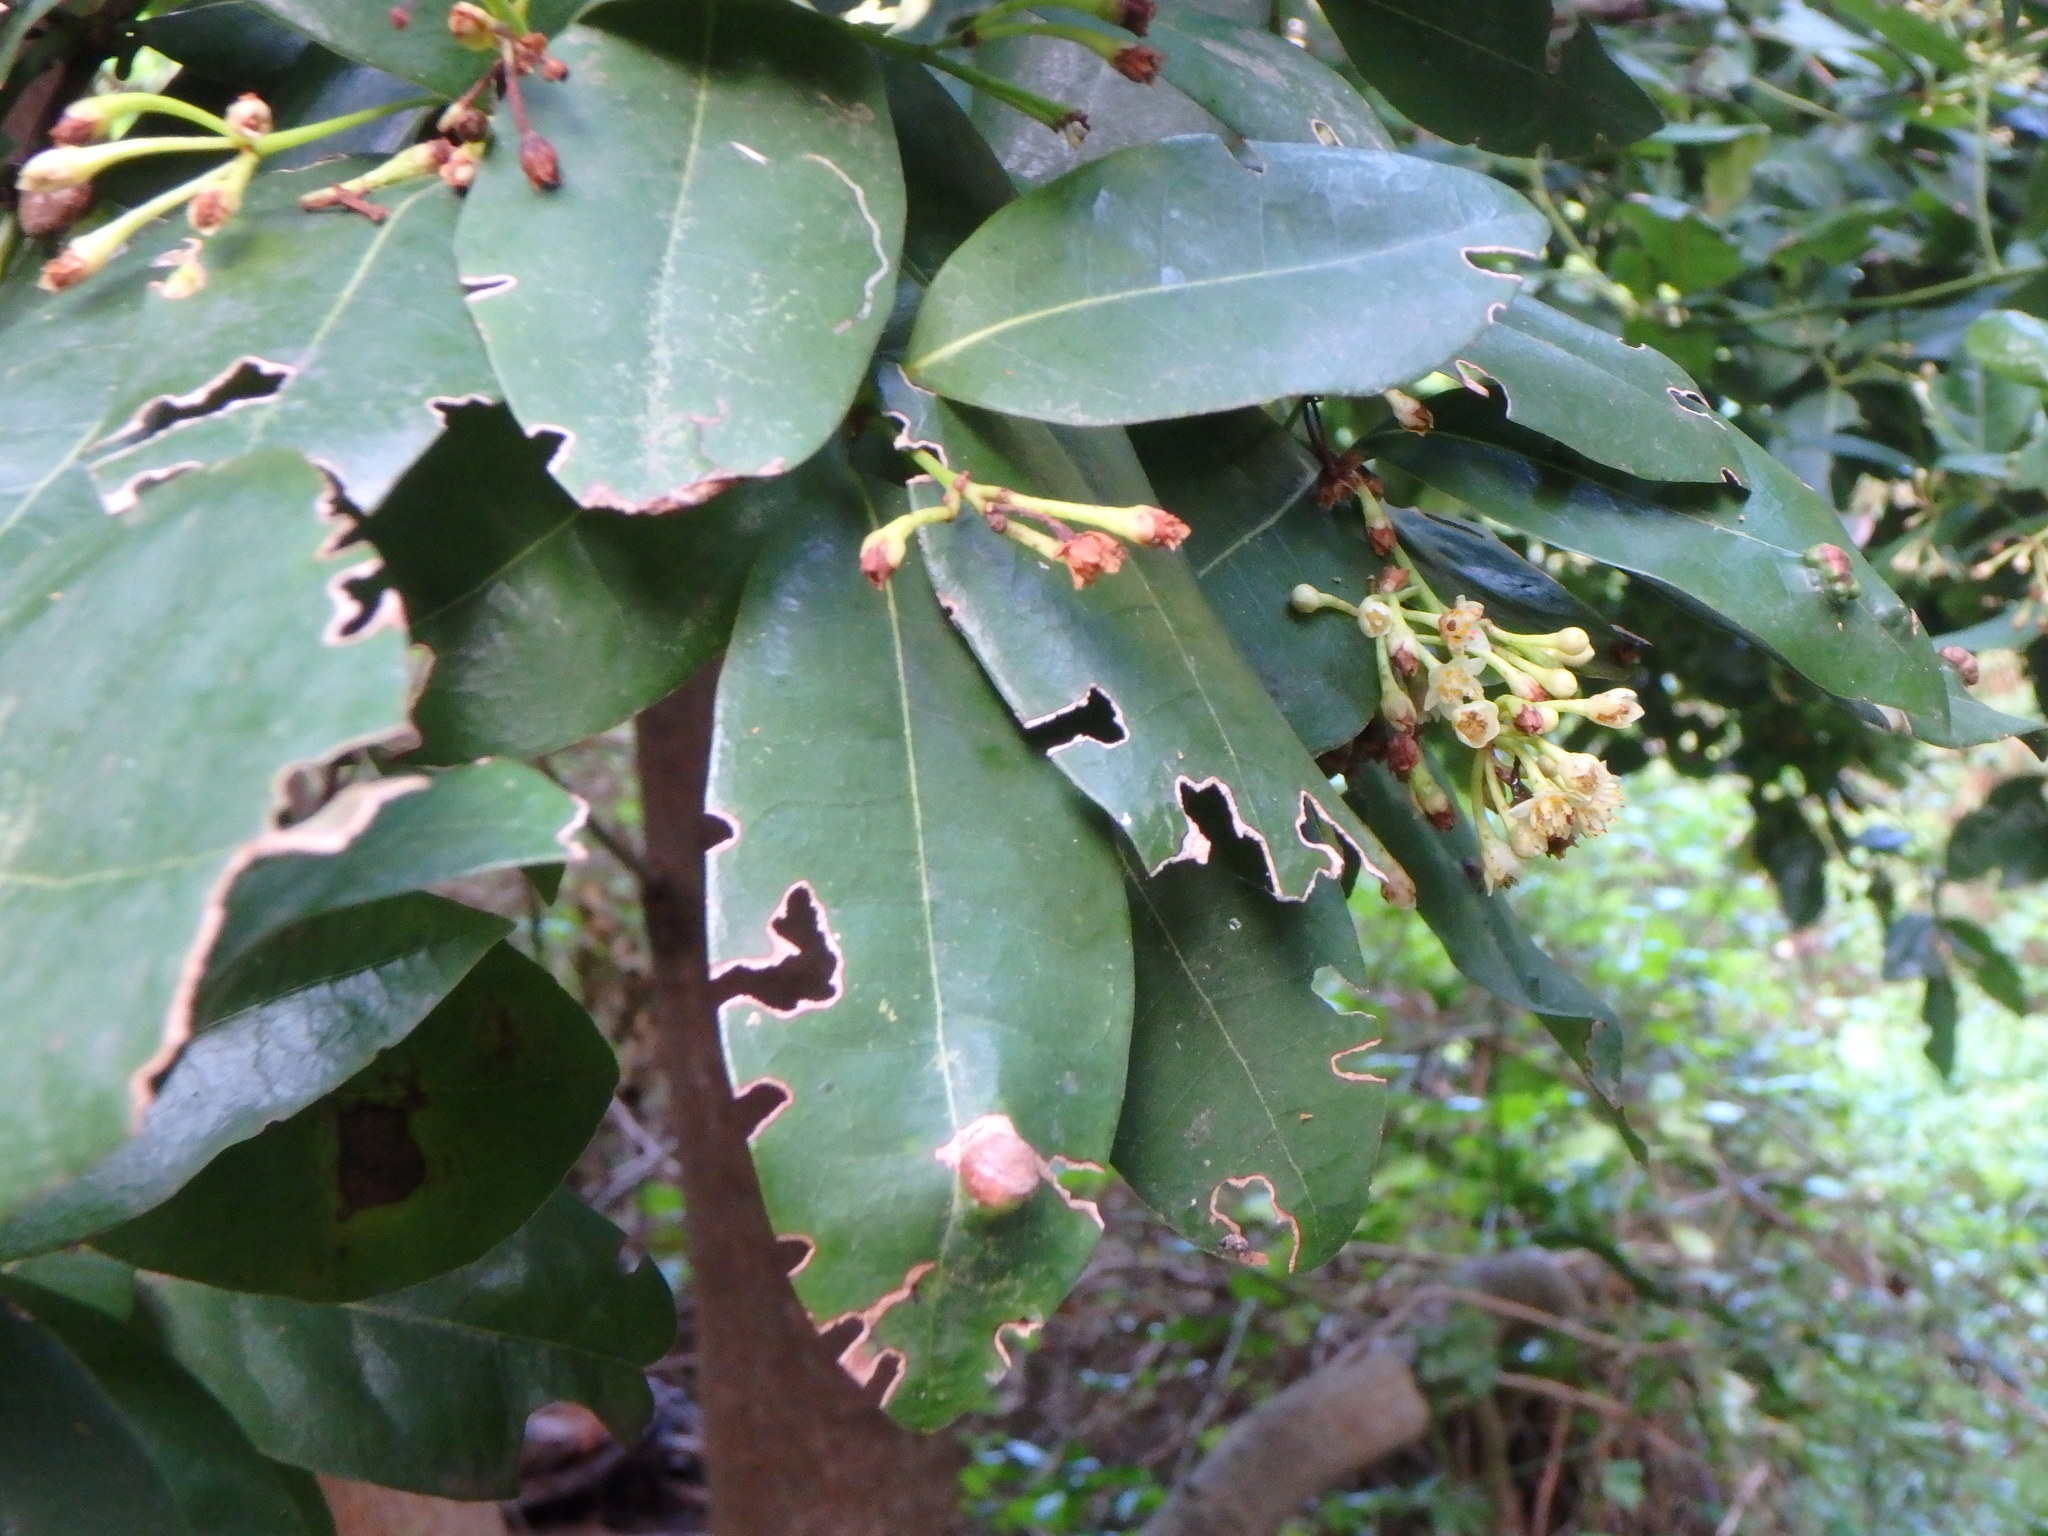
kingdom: Plantae
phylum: Tracheophyta
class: Magnoliopsida
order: Laurales
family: Lauraceae
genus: Apollonias
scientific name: Apollonias barbujana
